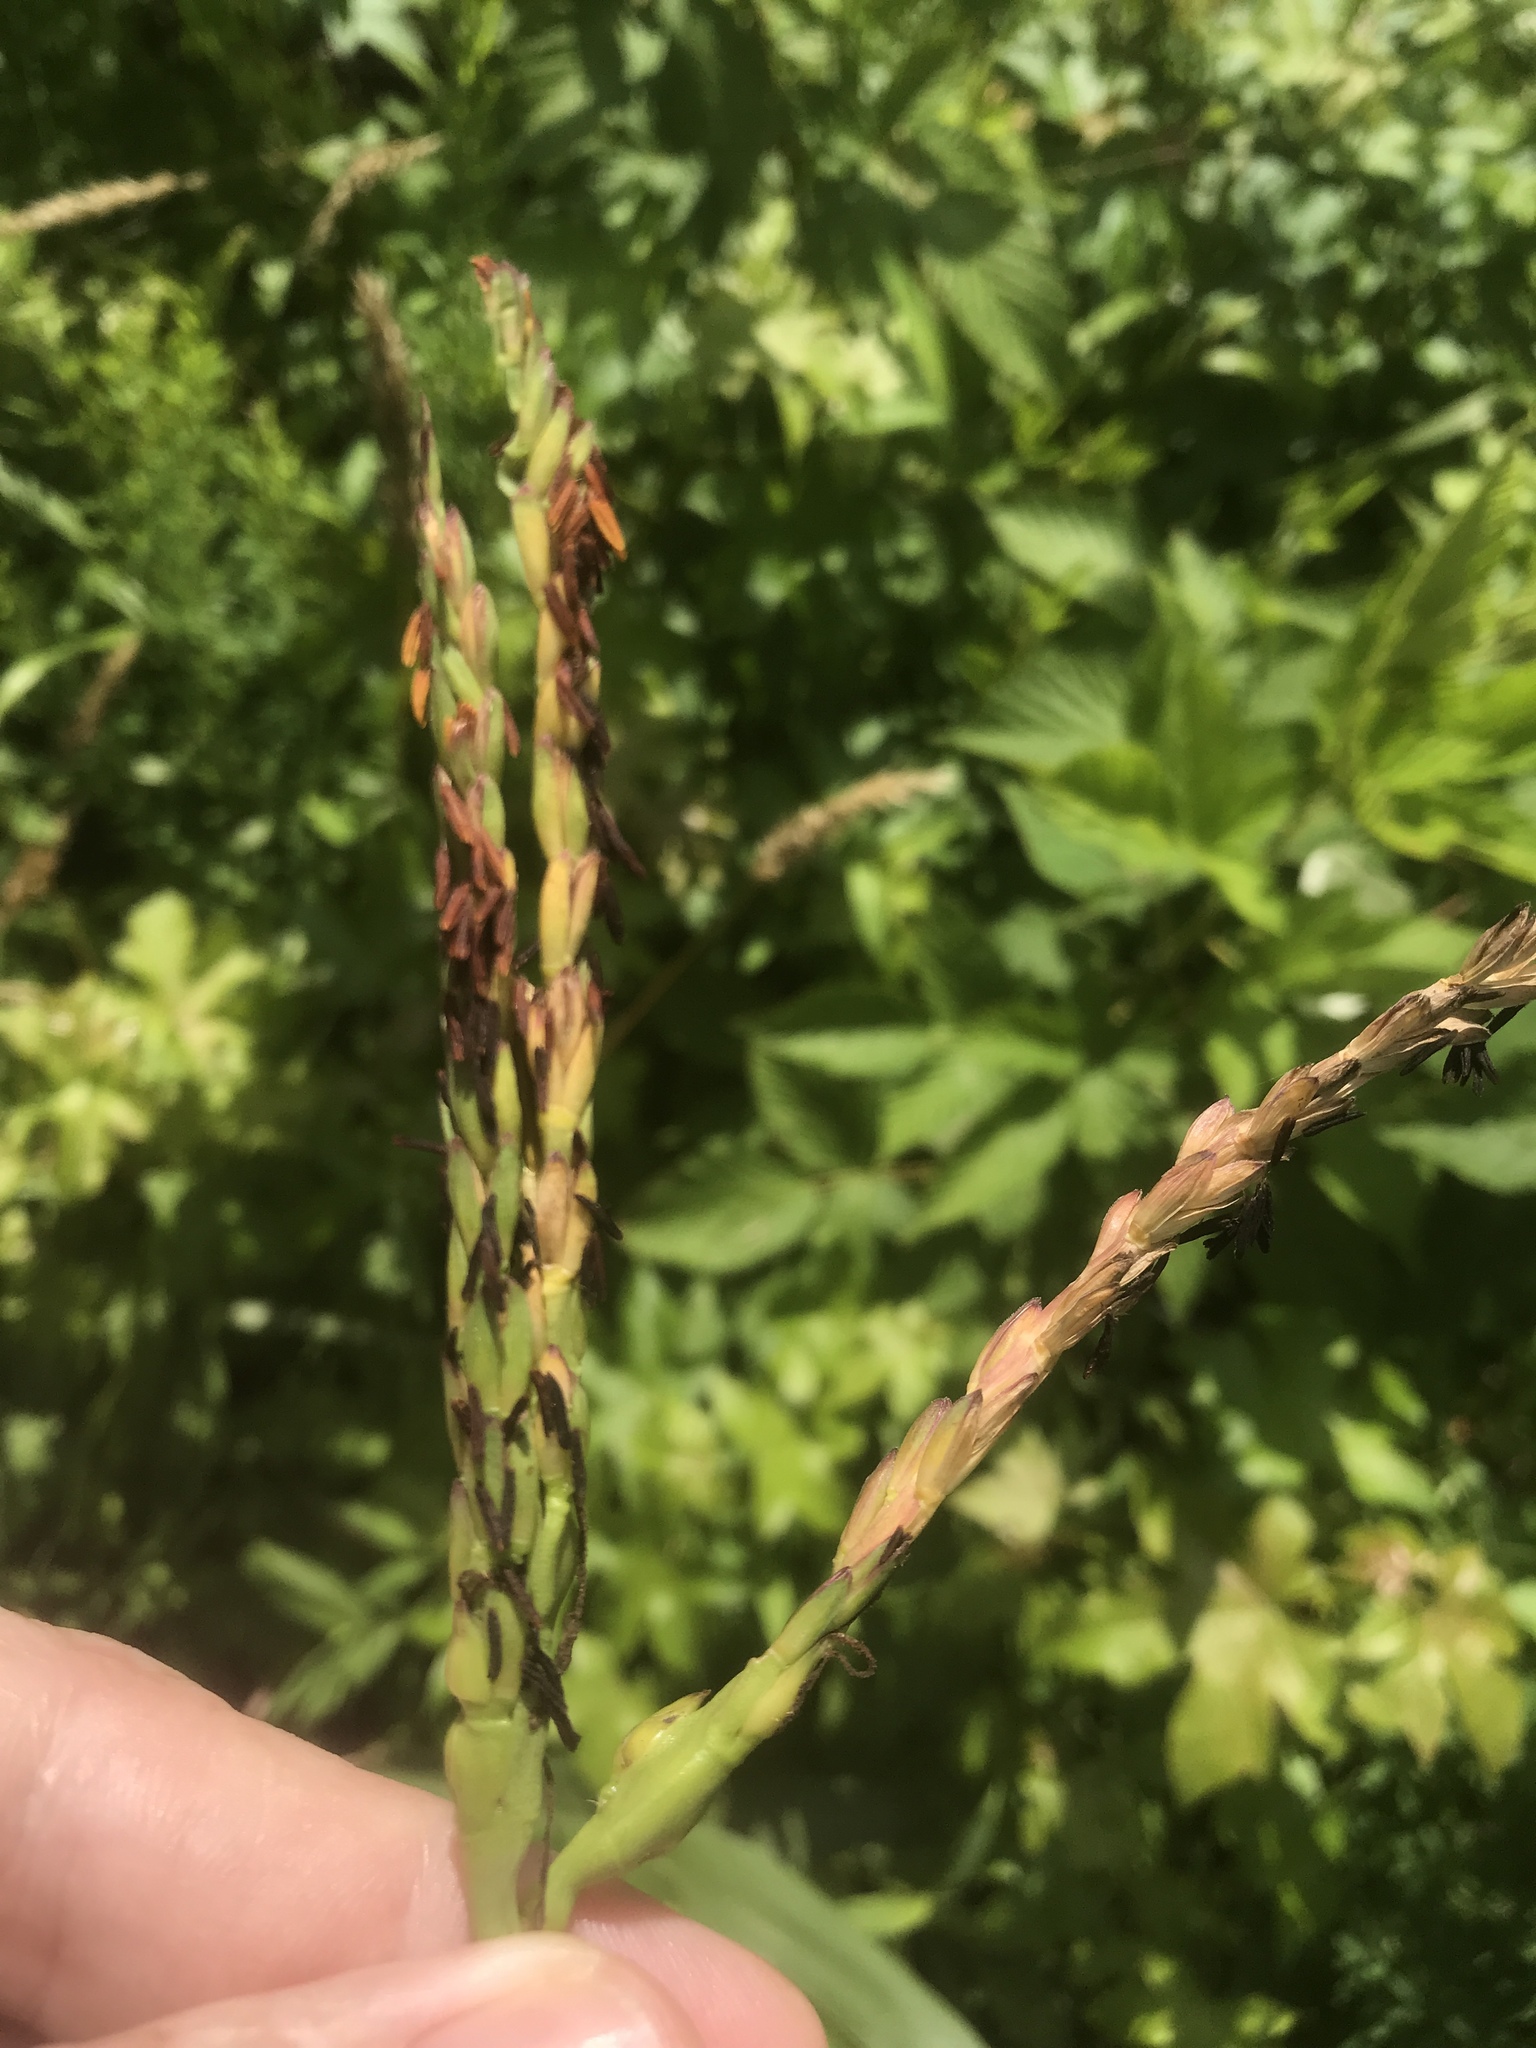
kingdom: Plantae
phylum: Tracheophyta
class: Liliopsida
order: Poales
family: Poaceae
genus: Tripsacum
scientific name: Tripsacum dactyloides
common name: Buffalo-grass
